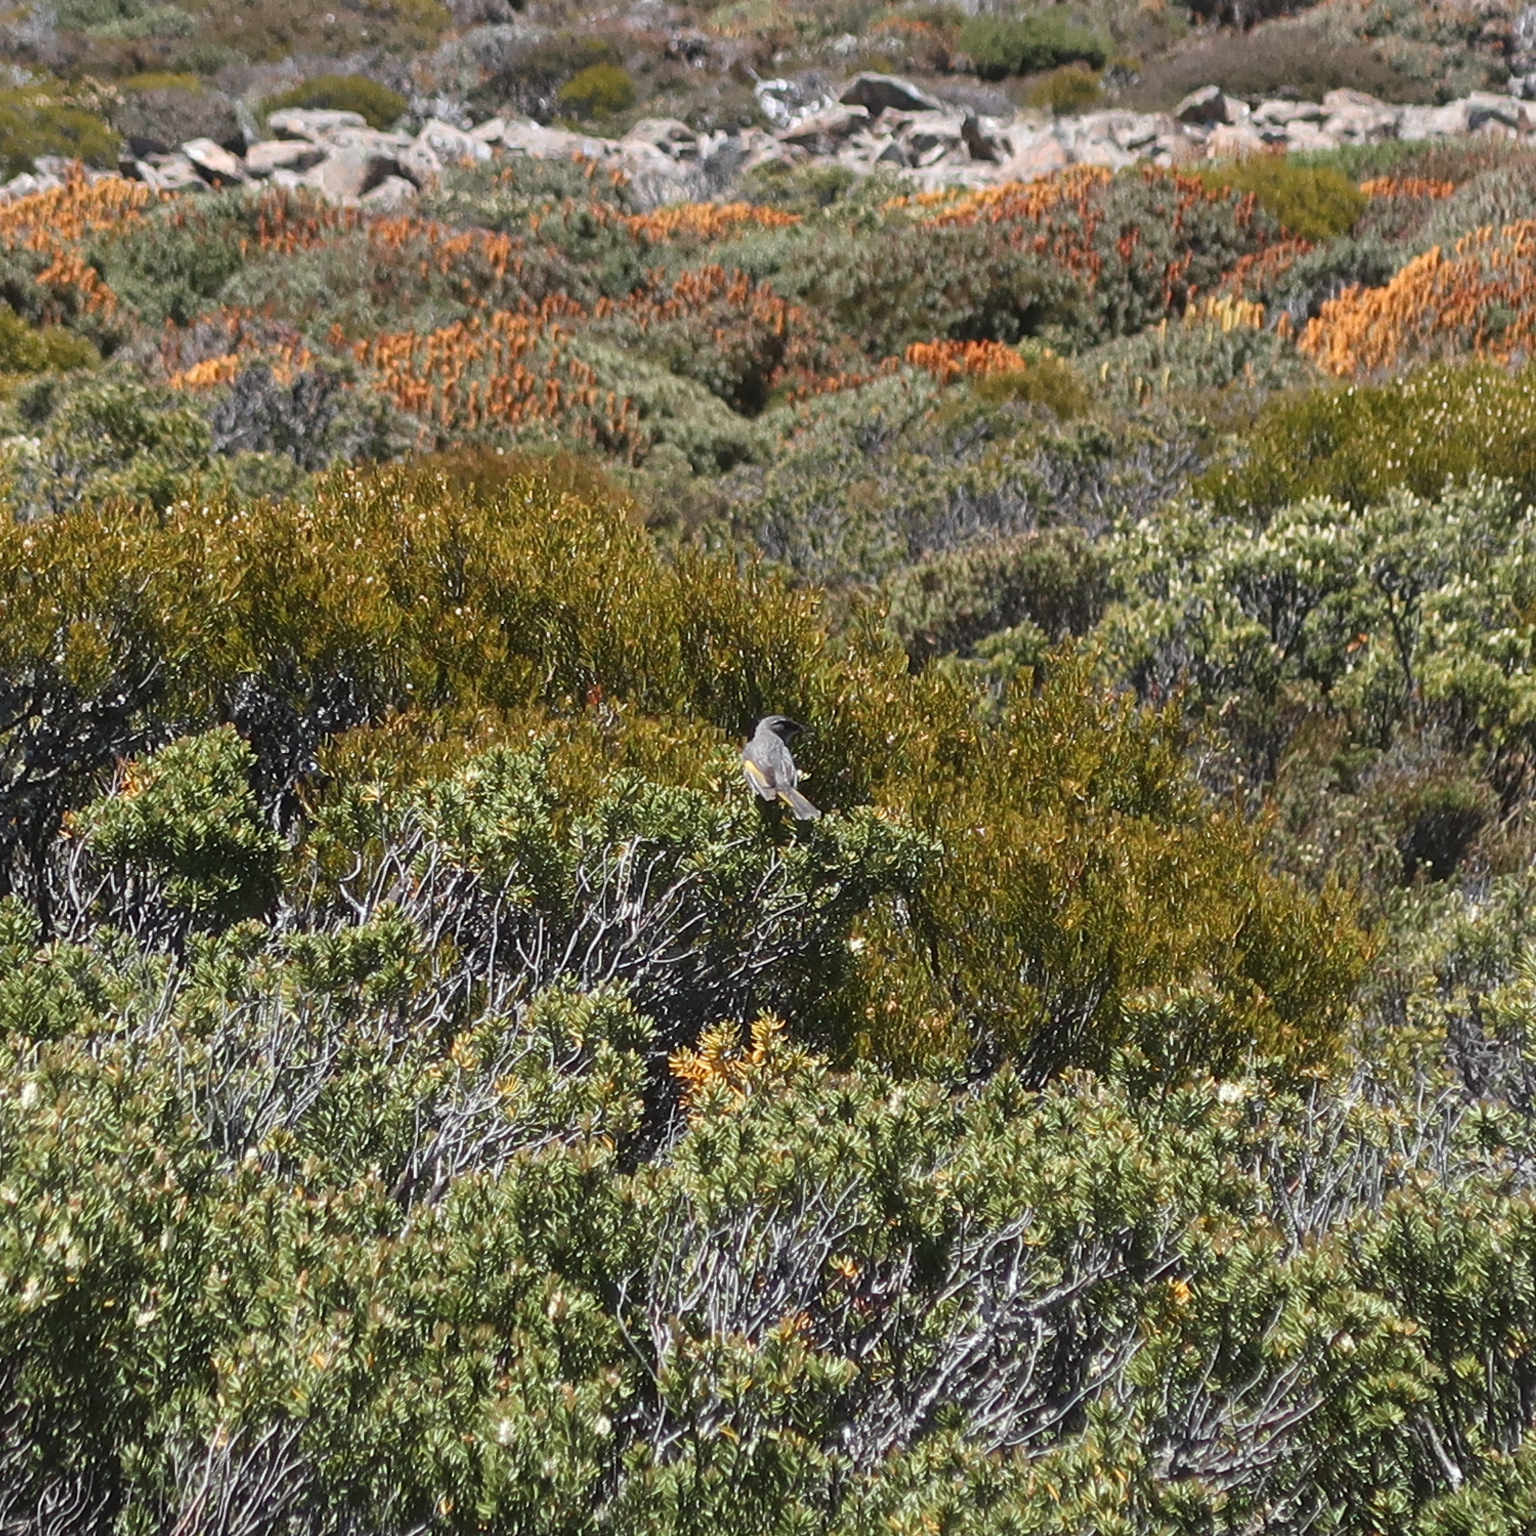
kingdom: Animalia
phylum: Chordata
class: Aves
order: Passeriformes
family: Meliphagidae
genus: Phylidonyris
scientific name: Phylidonyris pyrrhopterus
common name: Crescent honeyeater
